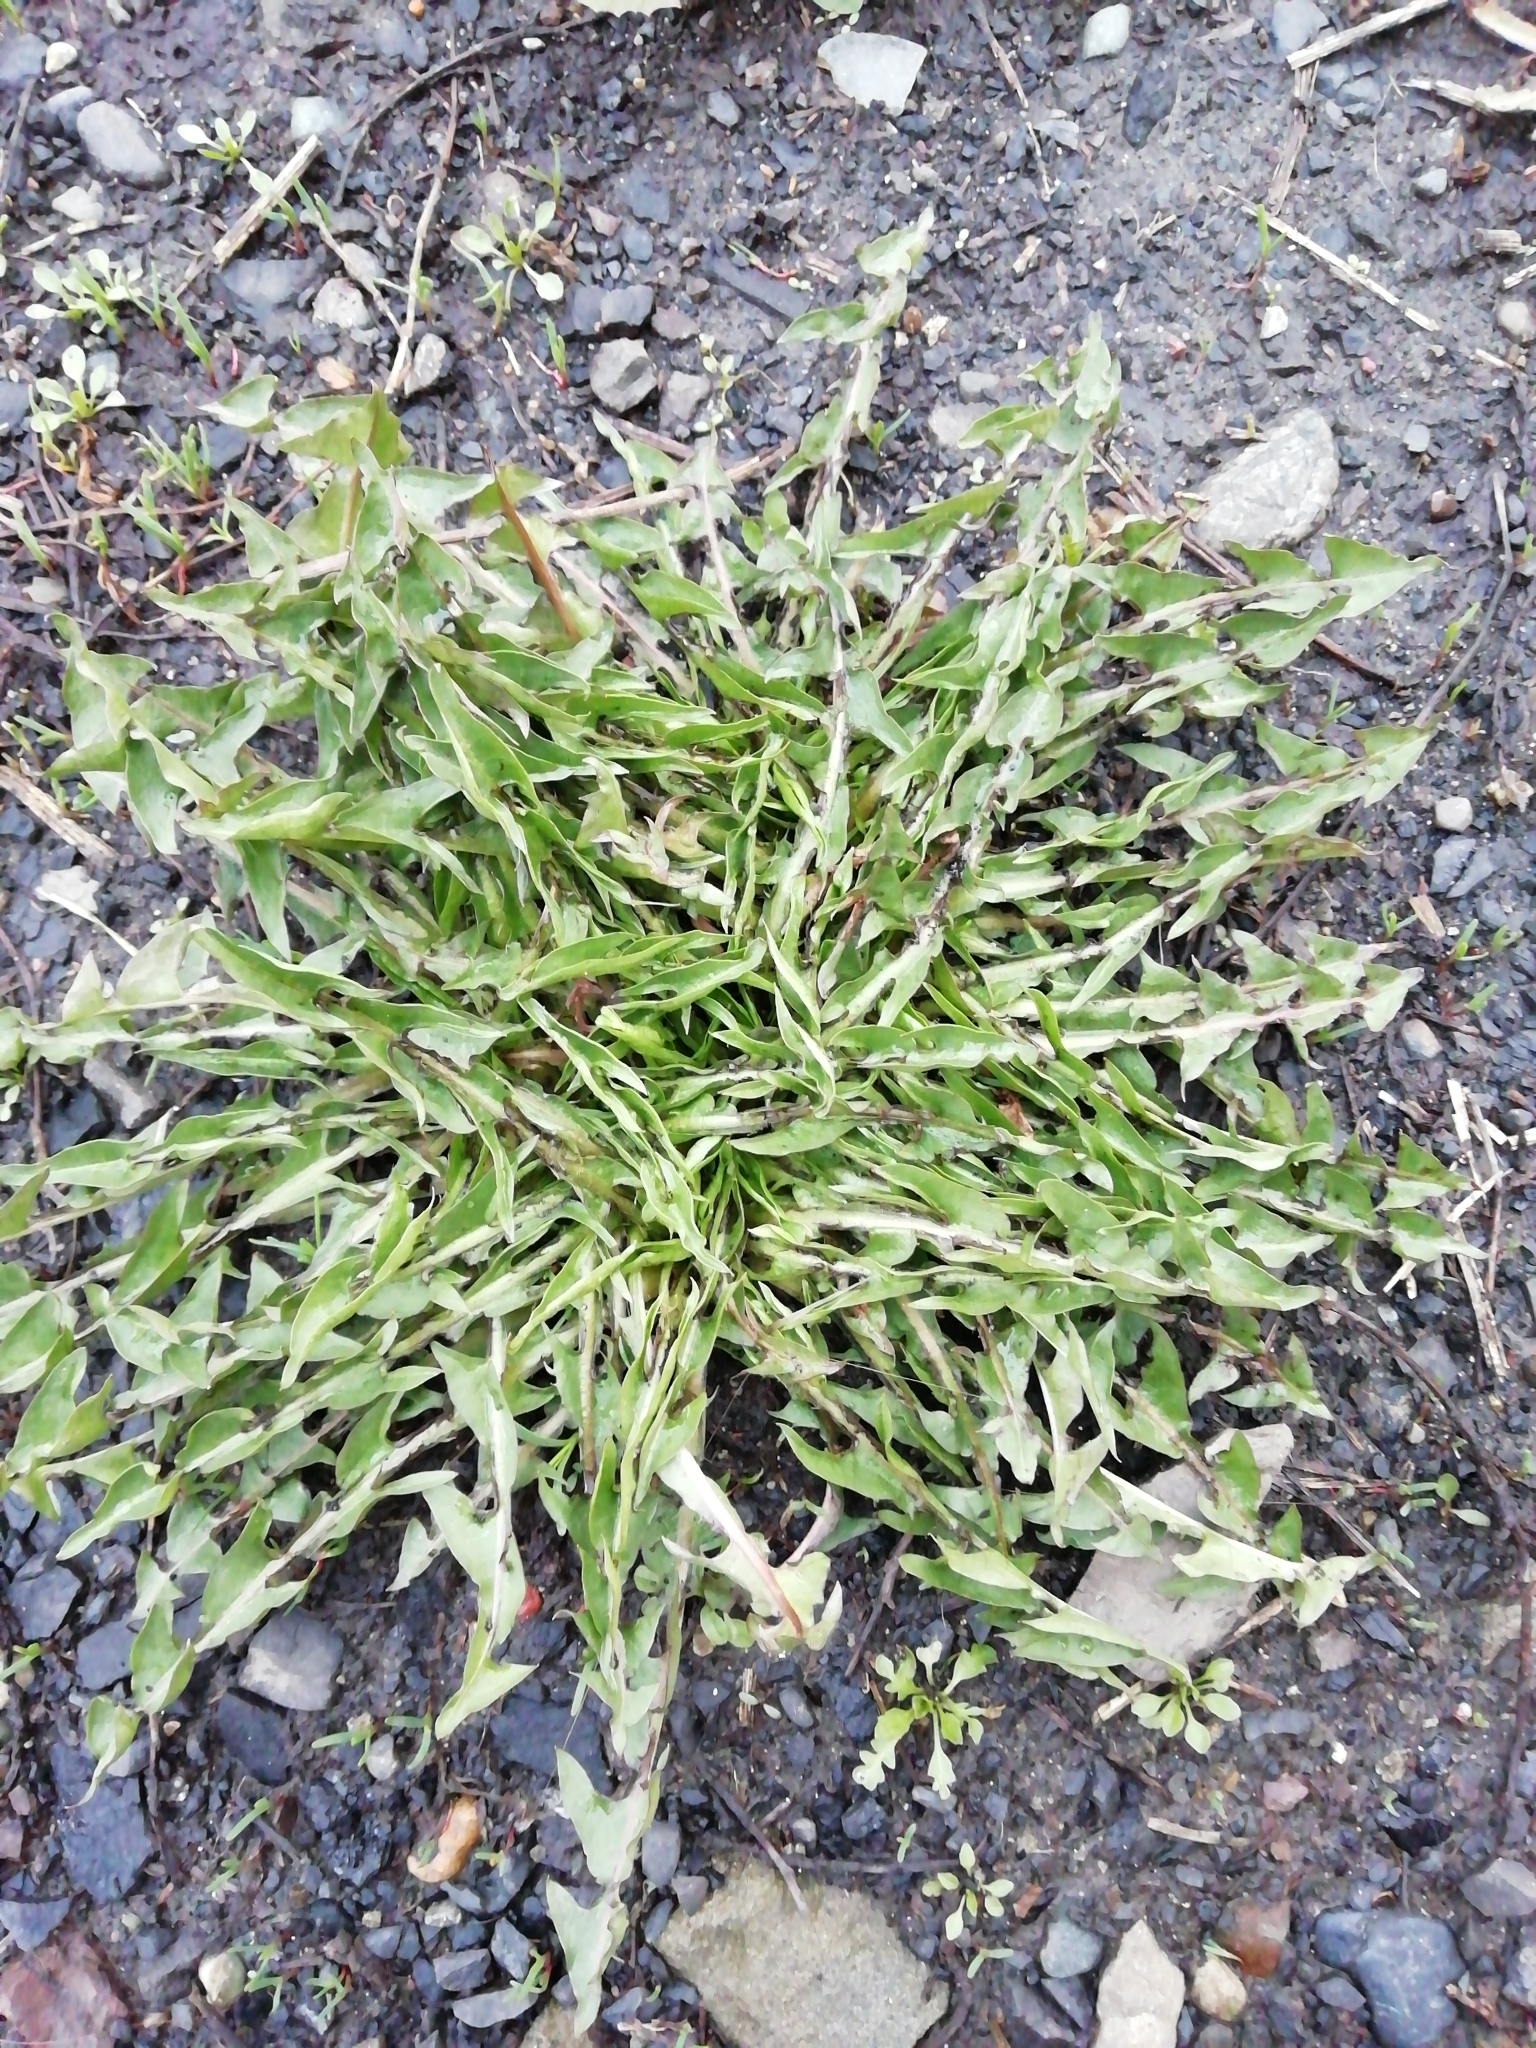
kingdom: Plantae
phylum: Tracheophyta
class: Magnoliopsida
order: Asterales
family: Asteraceae
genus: Taraxacum
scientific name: Taraxacum officinale
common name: Common dandelion
